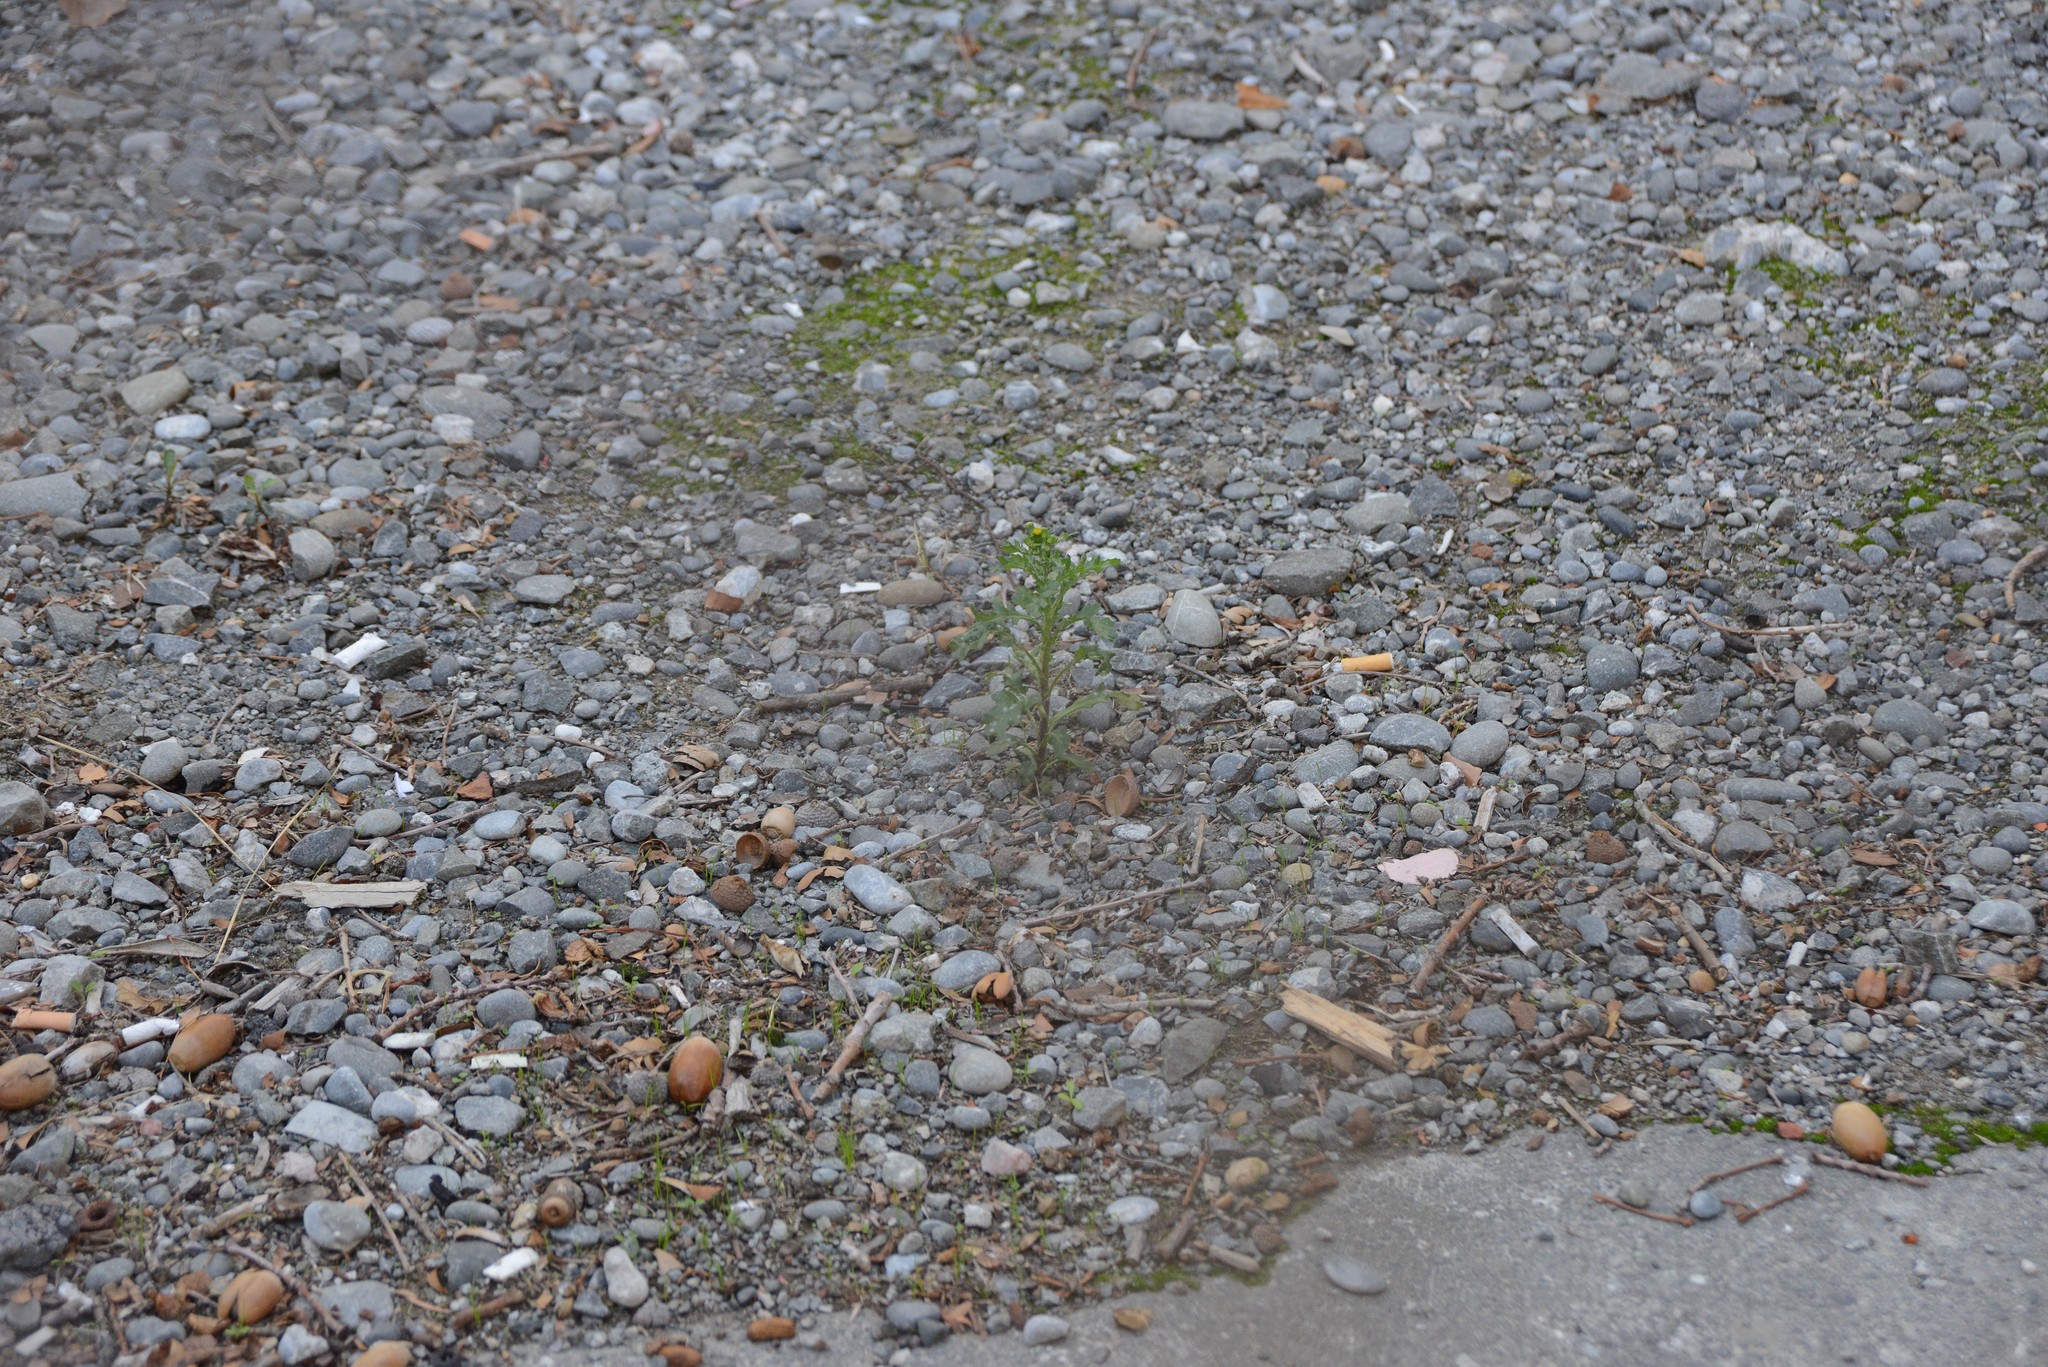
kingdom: Plantae
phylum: Tracheophyta
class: Magnoliopsida
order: Asterales
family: Asteraceae
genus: Senecio
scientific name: Senecio vulgaris
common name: Old-man-in-the-spring
